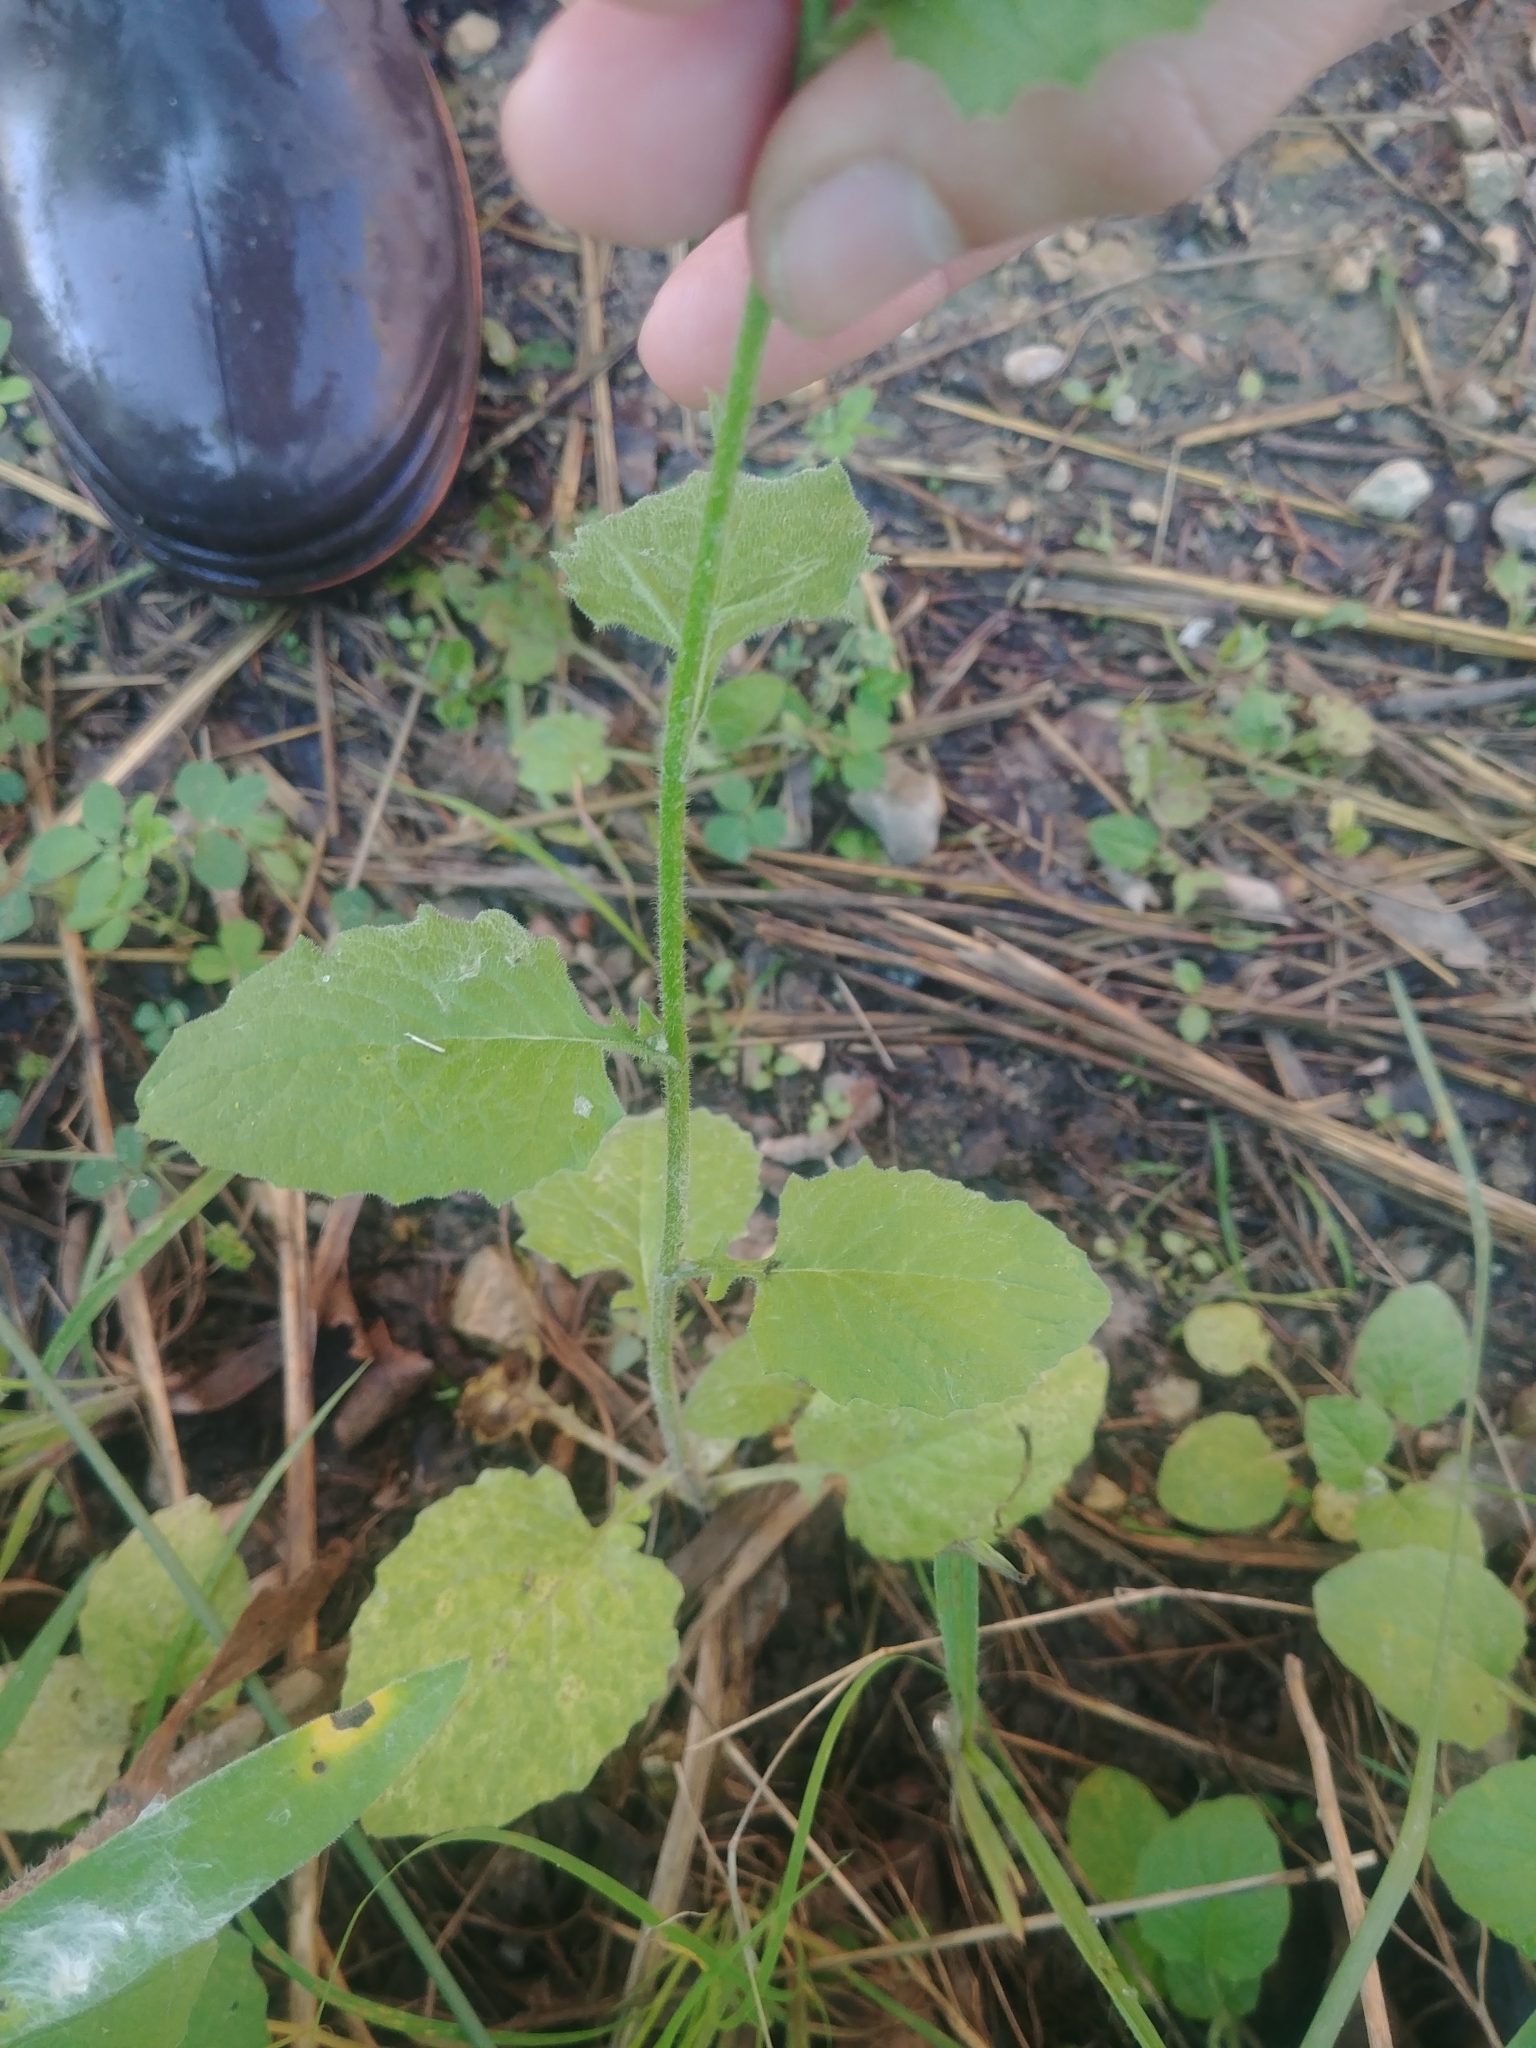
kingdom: Plantae
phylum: Tracheophyta
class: Magnoliopsida
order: Asterales
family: Asteraceae
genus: Lapsana
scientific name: Lapsana communis
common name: Nipplewort
